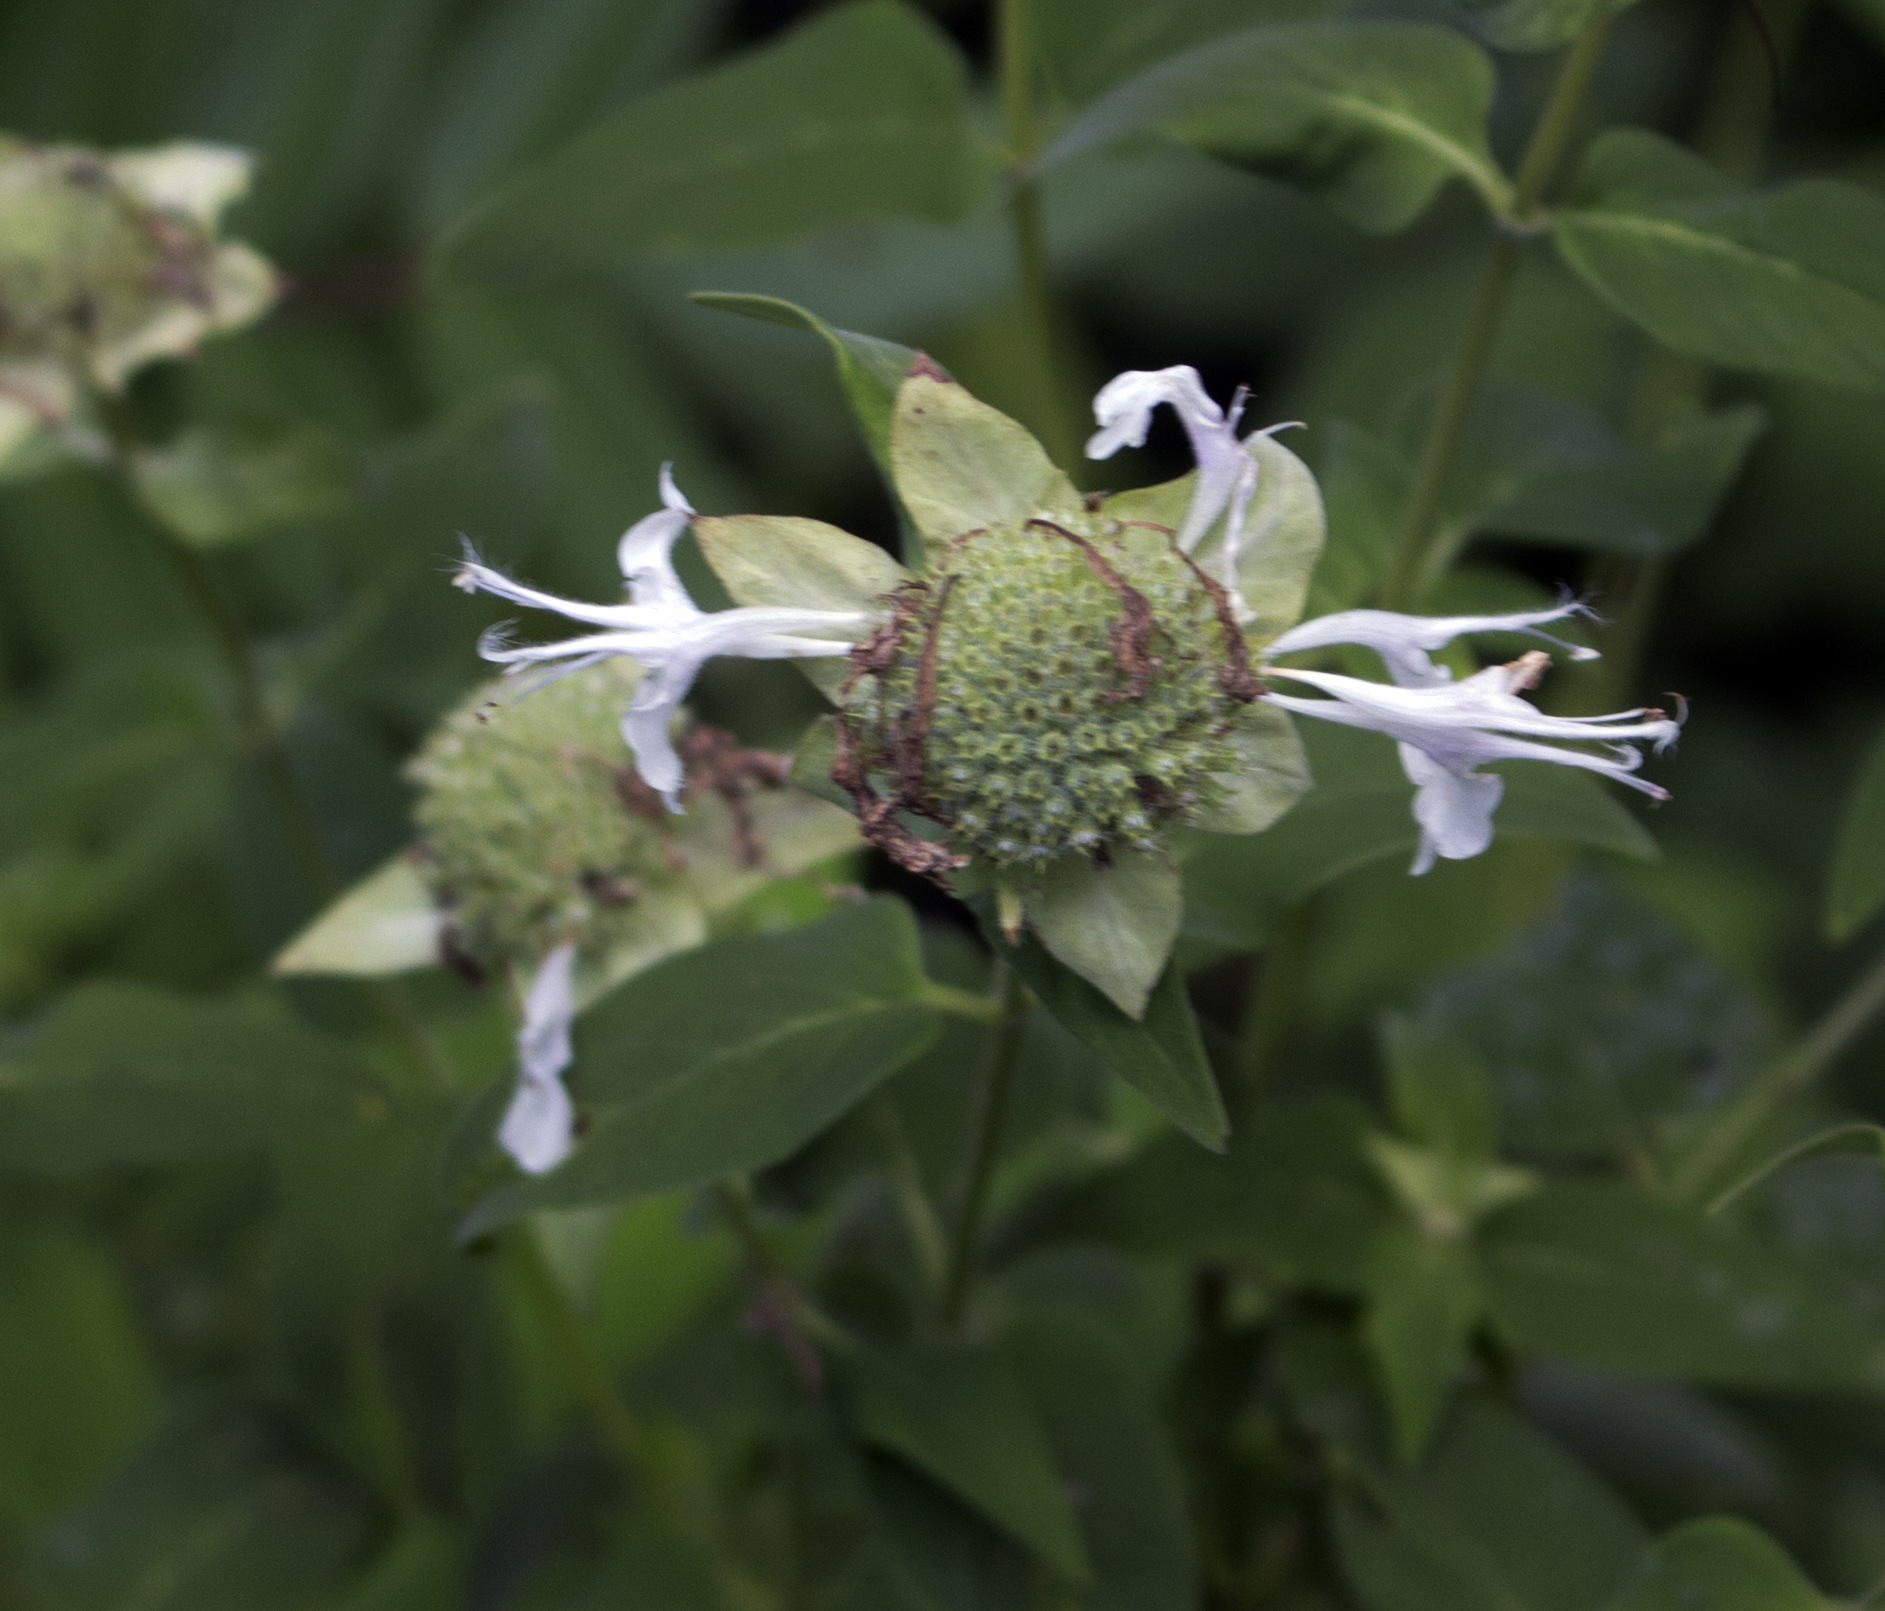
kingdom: Plantae
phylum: Tracheophyta
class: Magnoliopsida
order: Lamiales
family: Lamiaceae
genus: Monarda
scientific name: Monarda fistulosa
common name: Purple beebalm
